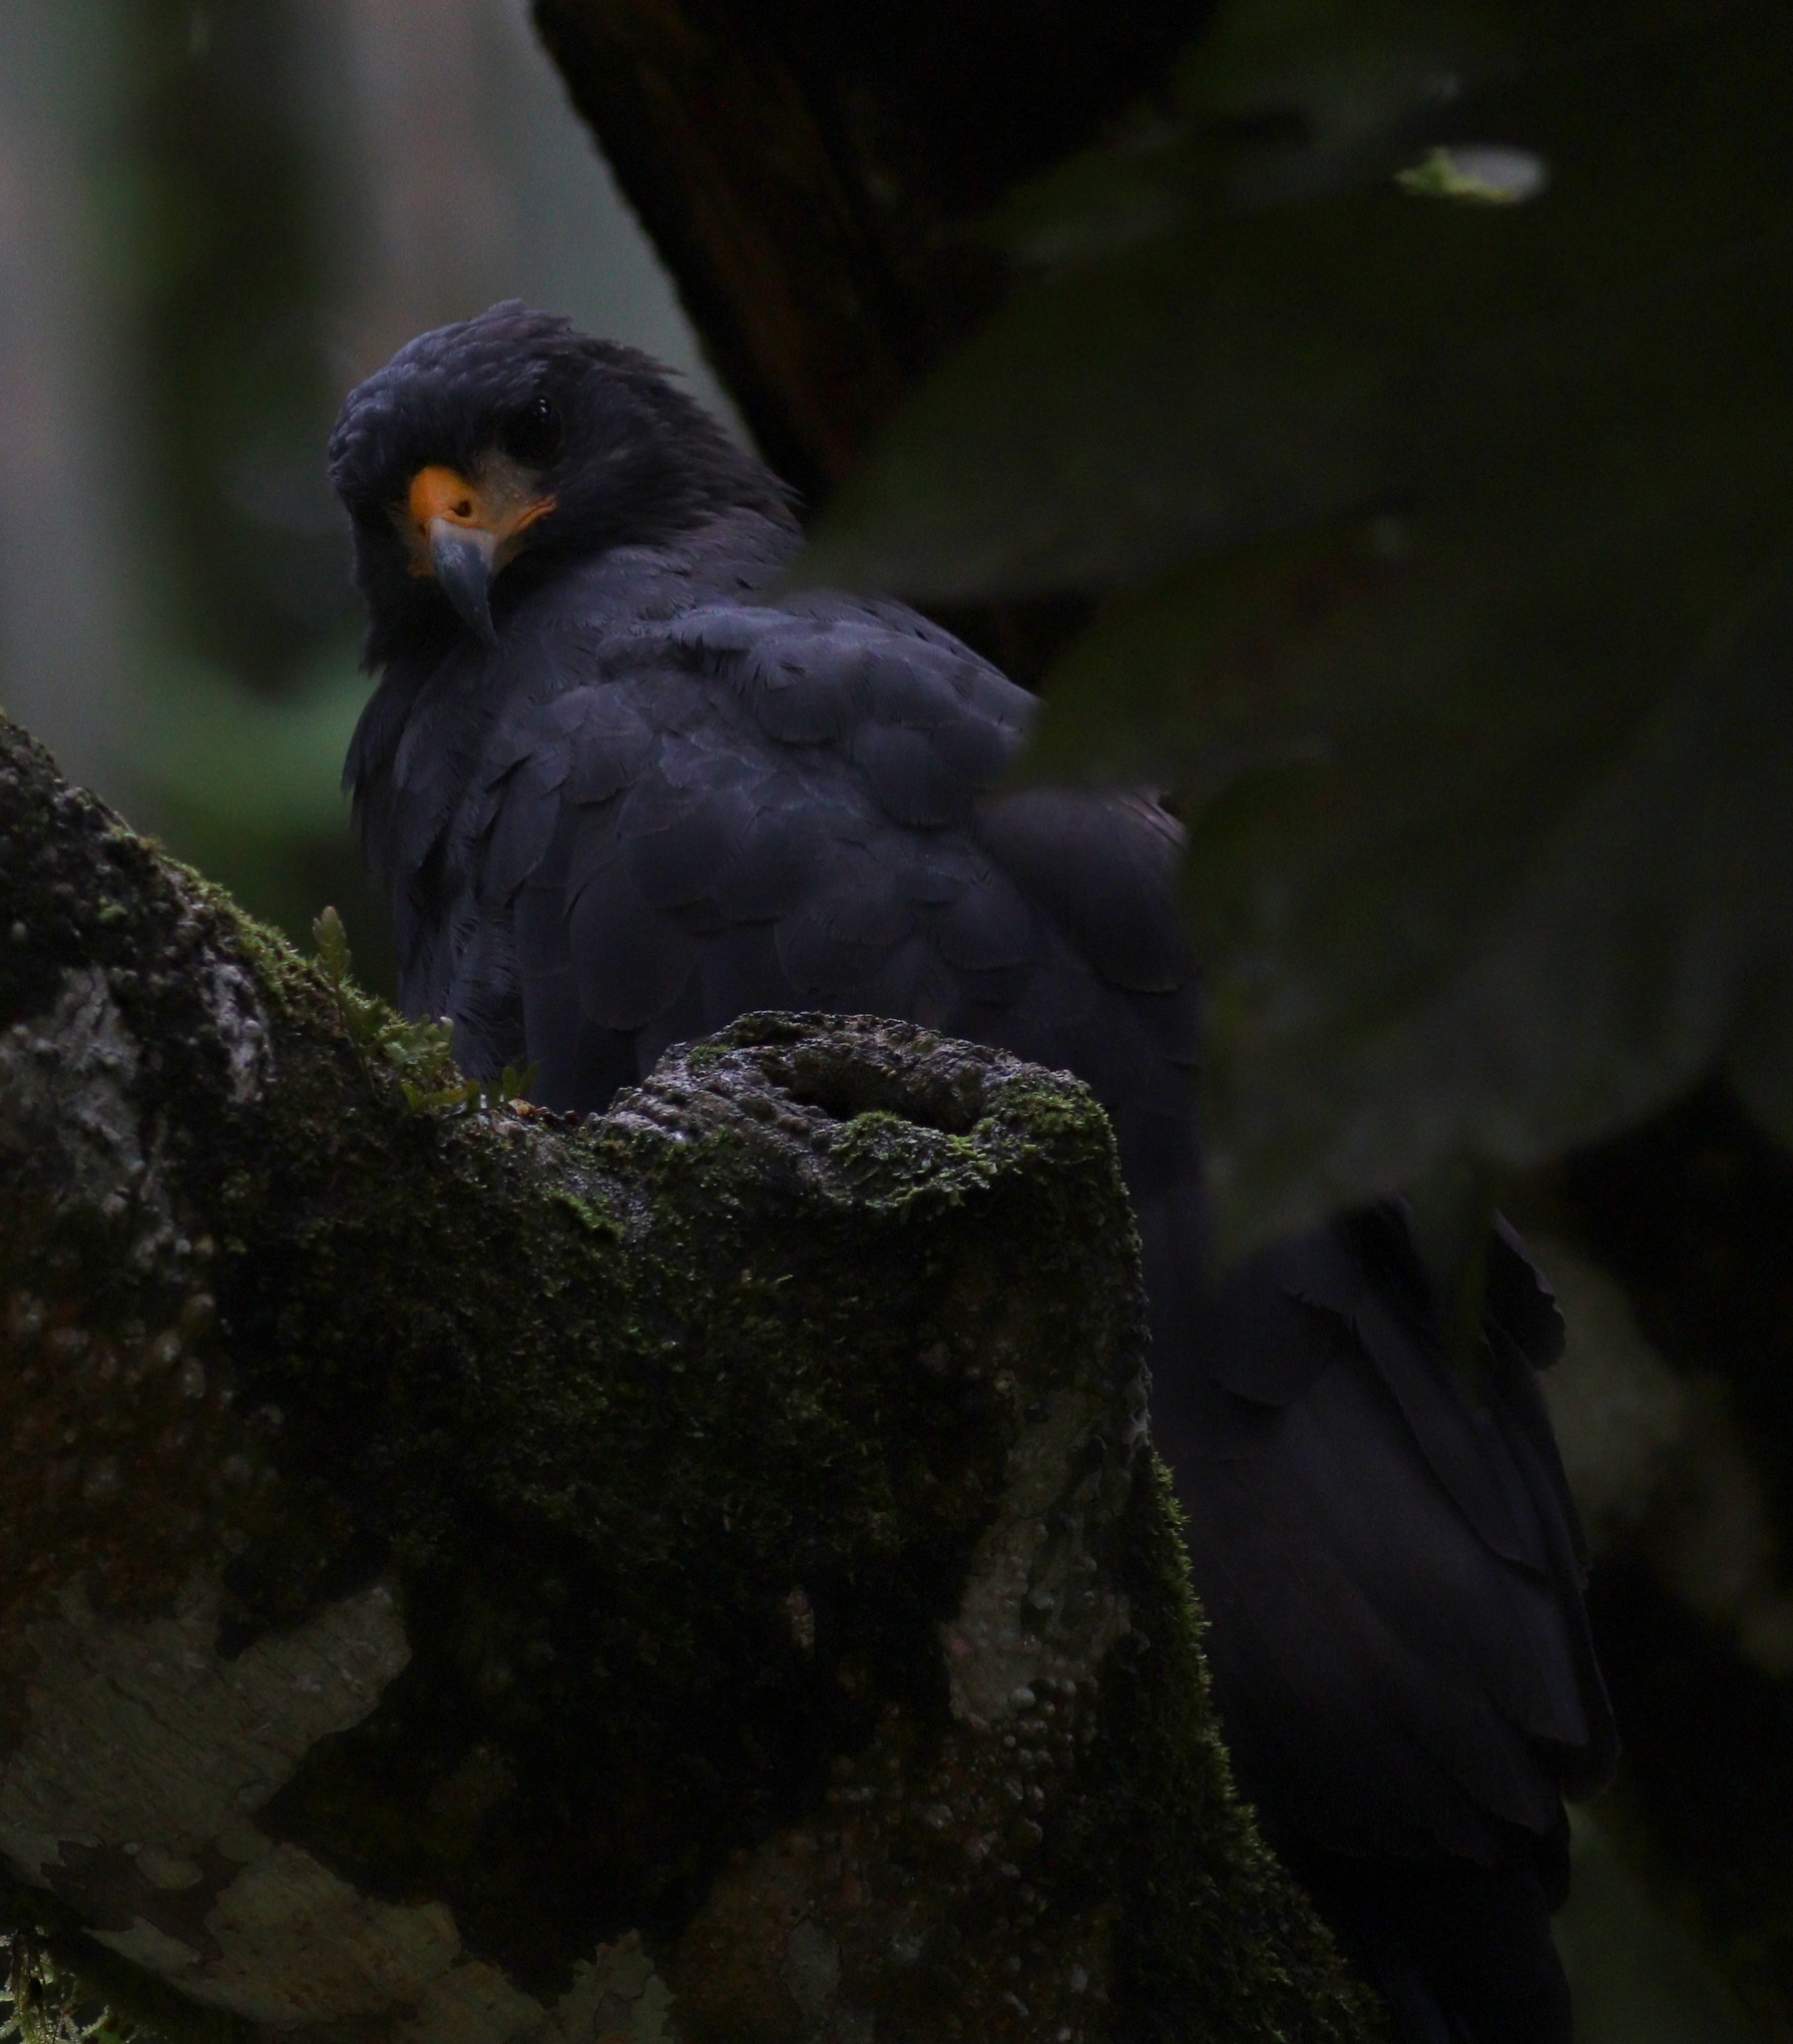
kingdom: Animalia
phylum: Chordata
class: Aves
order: Accipitriformes
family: Accipitridae
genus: Buteogallus
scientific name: Buteogallus anthracinus
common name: Common black hawk
